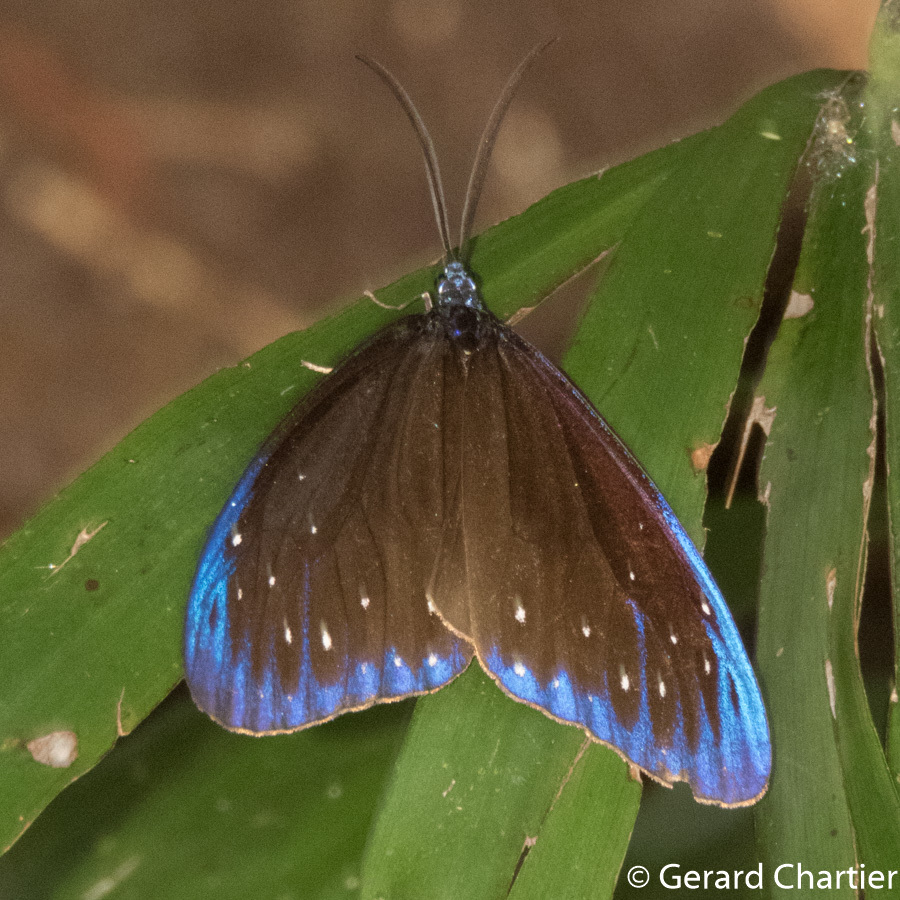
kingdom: Animalia
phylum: Arthropoda
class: Insecta
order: Lepidoptera
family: Zygaenidae
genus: Cyclosia
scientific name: Cyclosia midama
